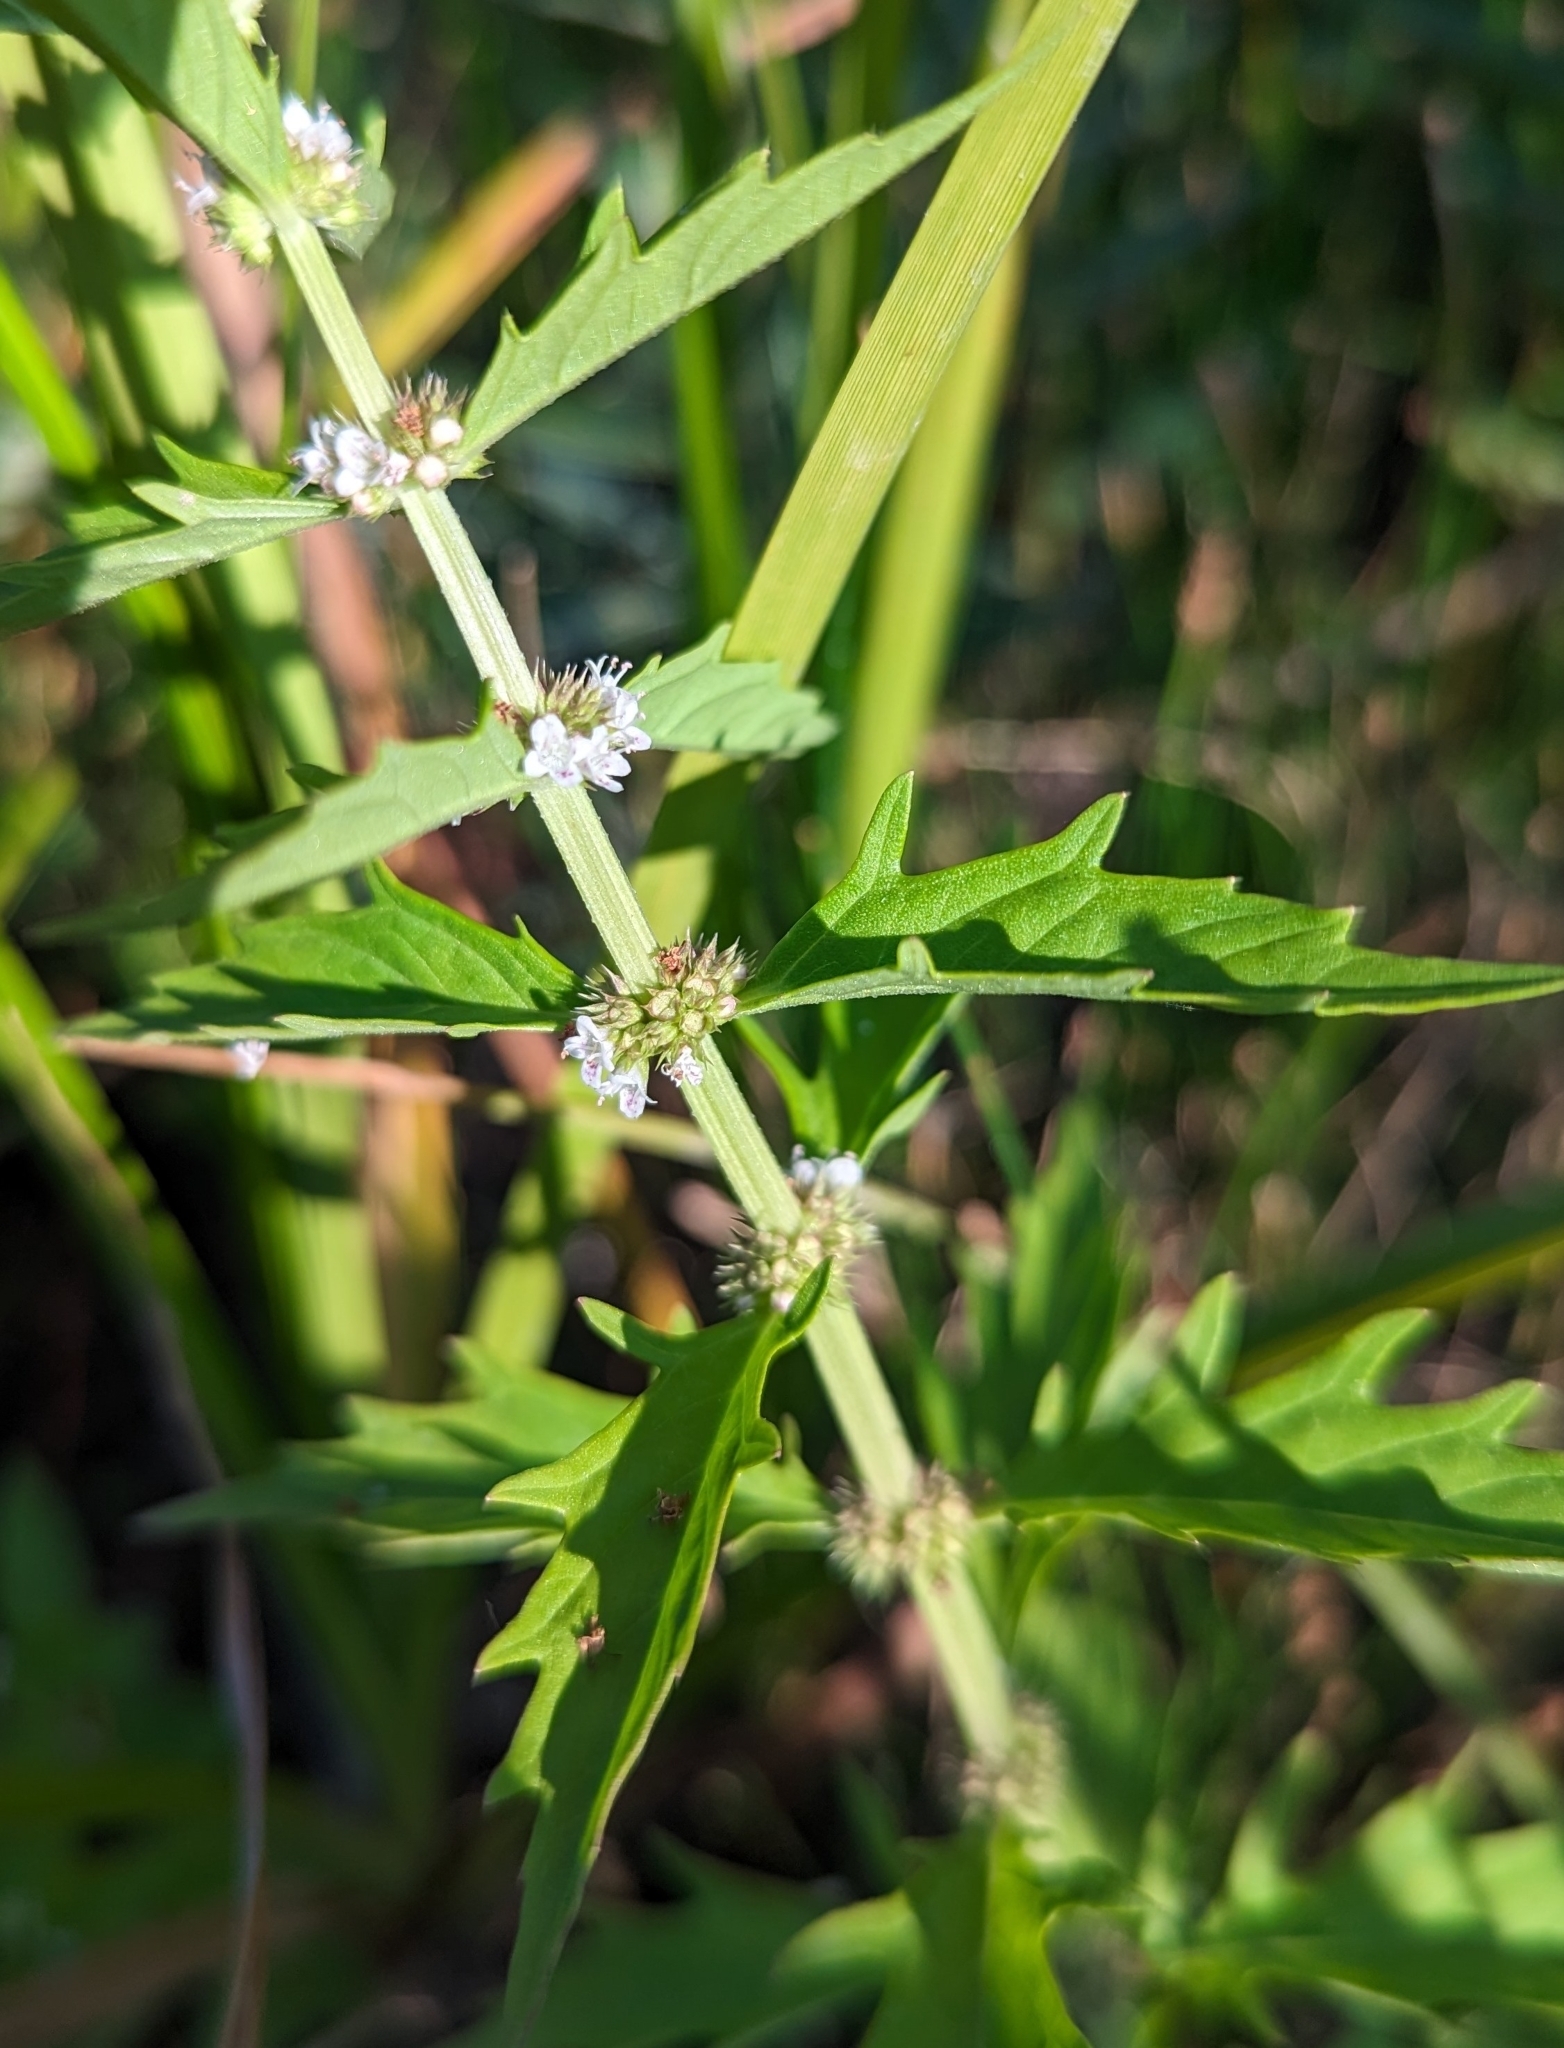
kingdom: Plantae
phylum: Tracheophyta
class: Magnoliopsida
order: Lamiales
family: Lamiaceae
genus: Lycopus
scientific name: Lycopus americanus
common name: American bugleweed
